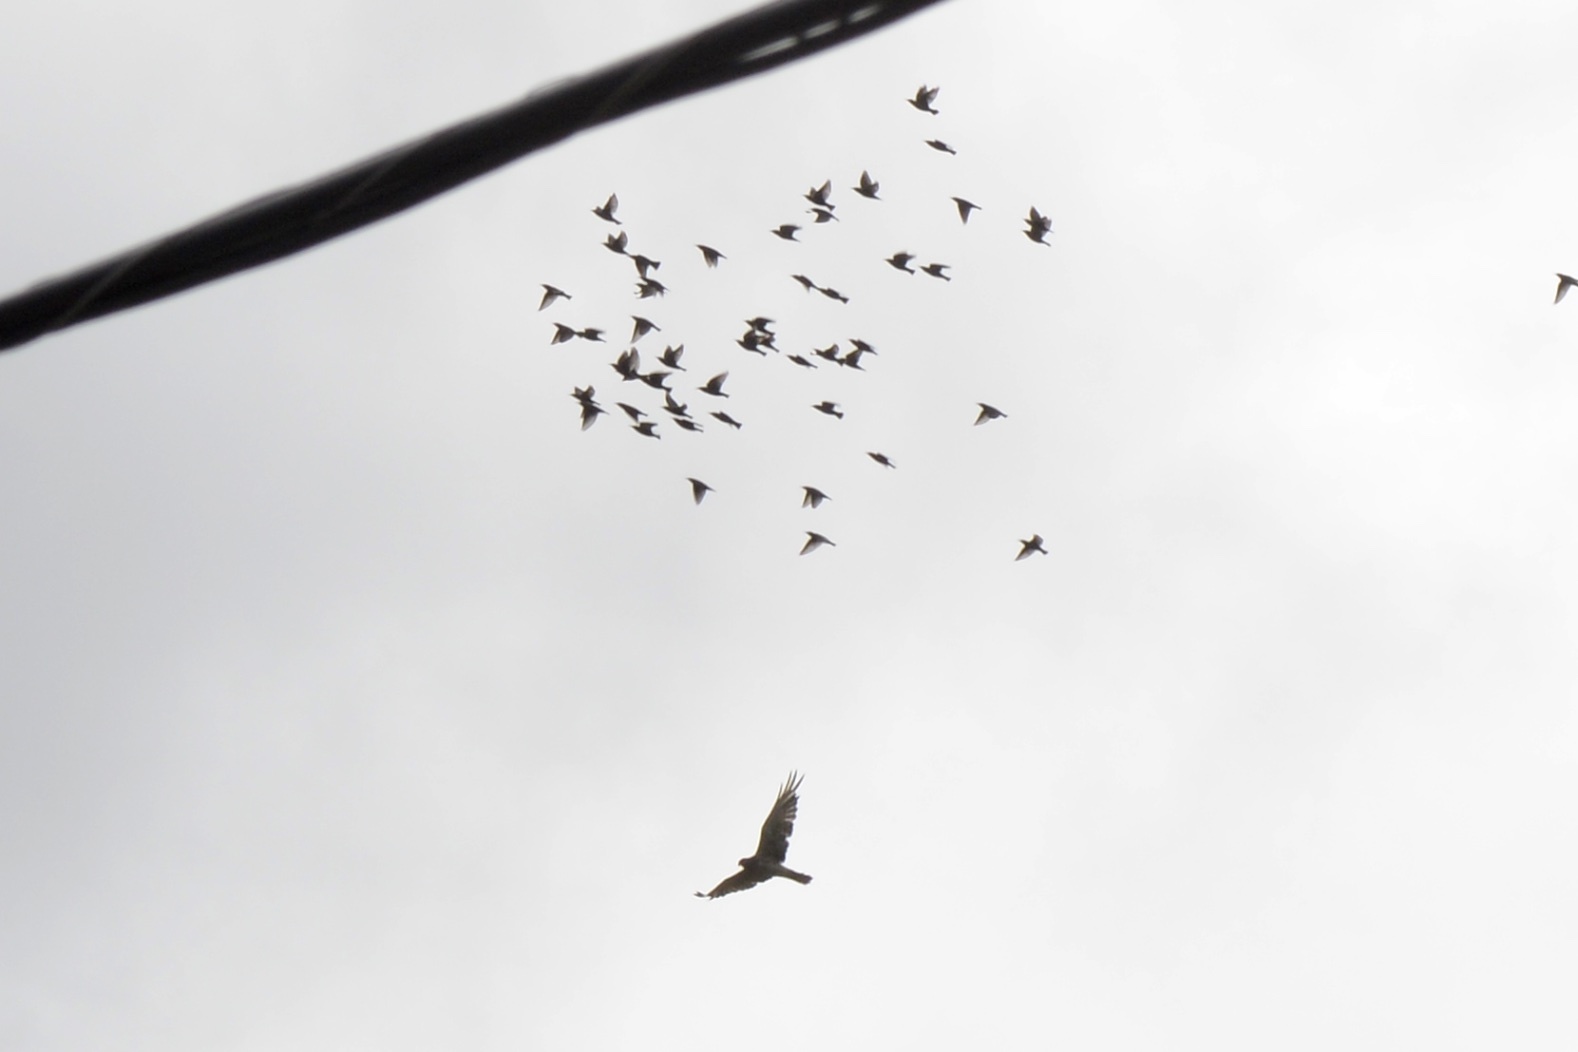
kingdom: Animalia
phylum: Chordata
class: Aves
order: Accipitriformes
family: Accipitridae
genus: Circus
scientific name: Circus approximans
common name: Swamp harrier
